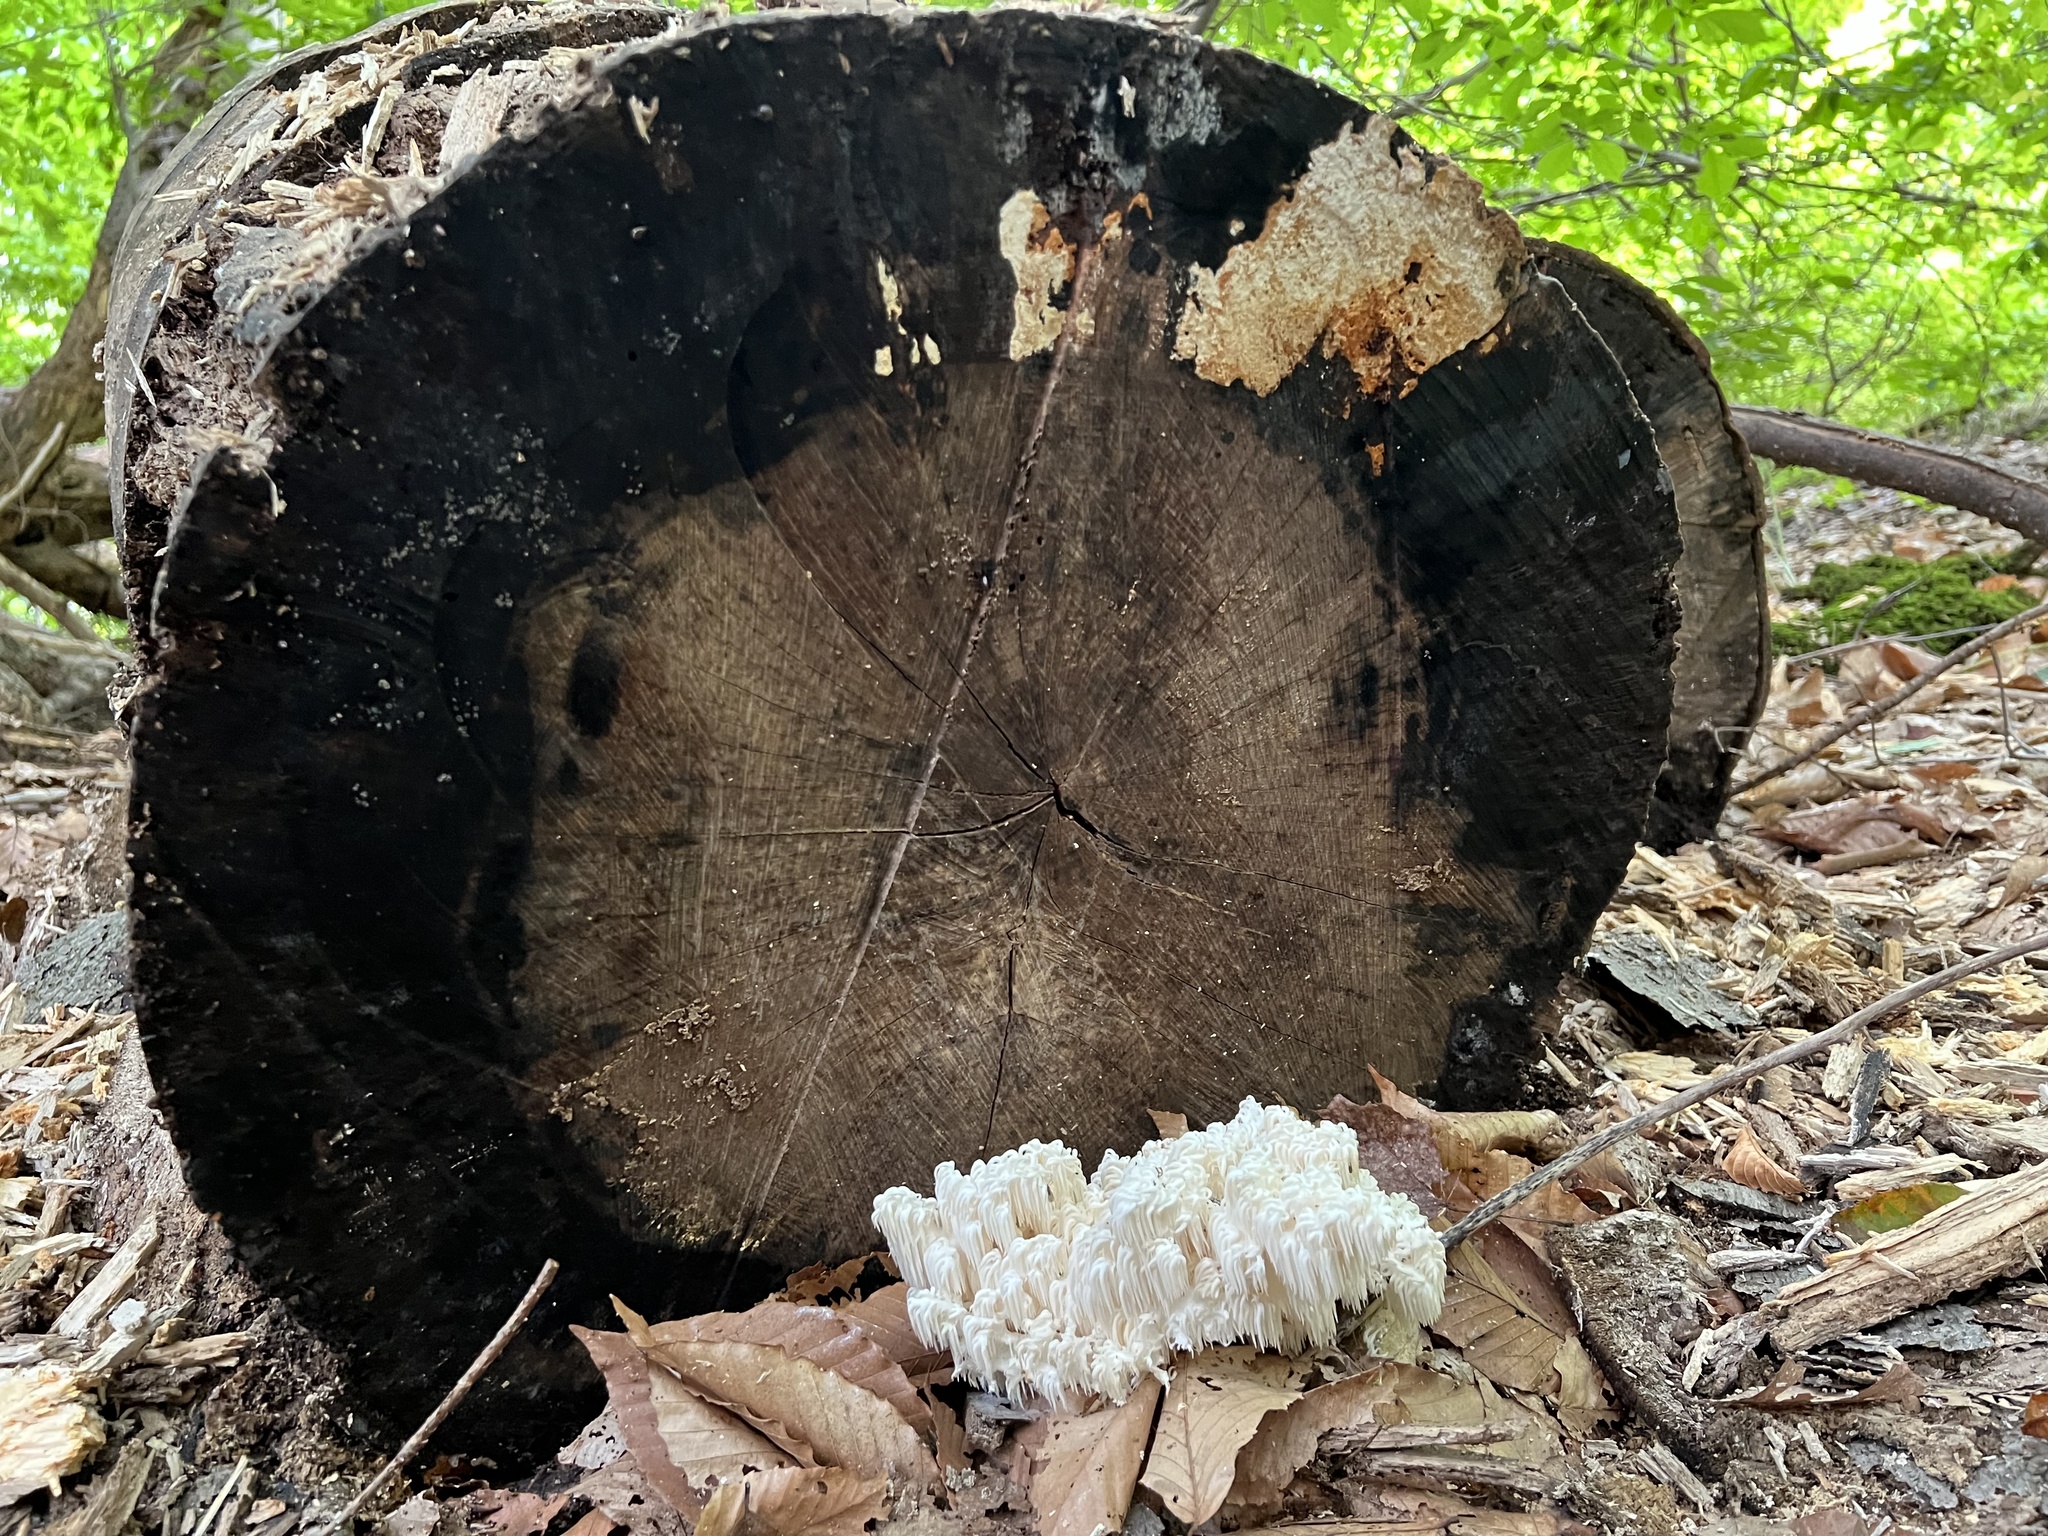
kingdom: Fungi
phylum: Basidiomycota
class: Agaricomycetes
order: Russulales
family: Hericiaceae
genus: Hericium
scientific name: Hericium americanum
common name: Bear's head tooth
